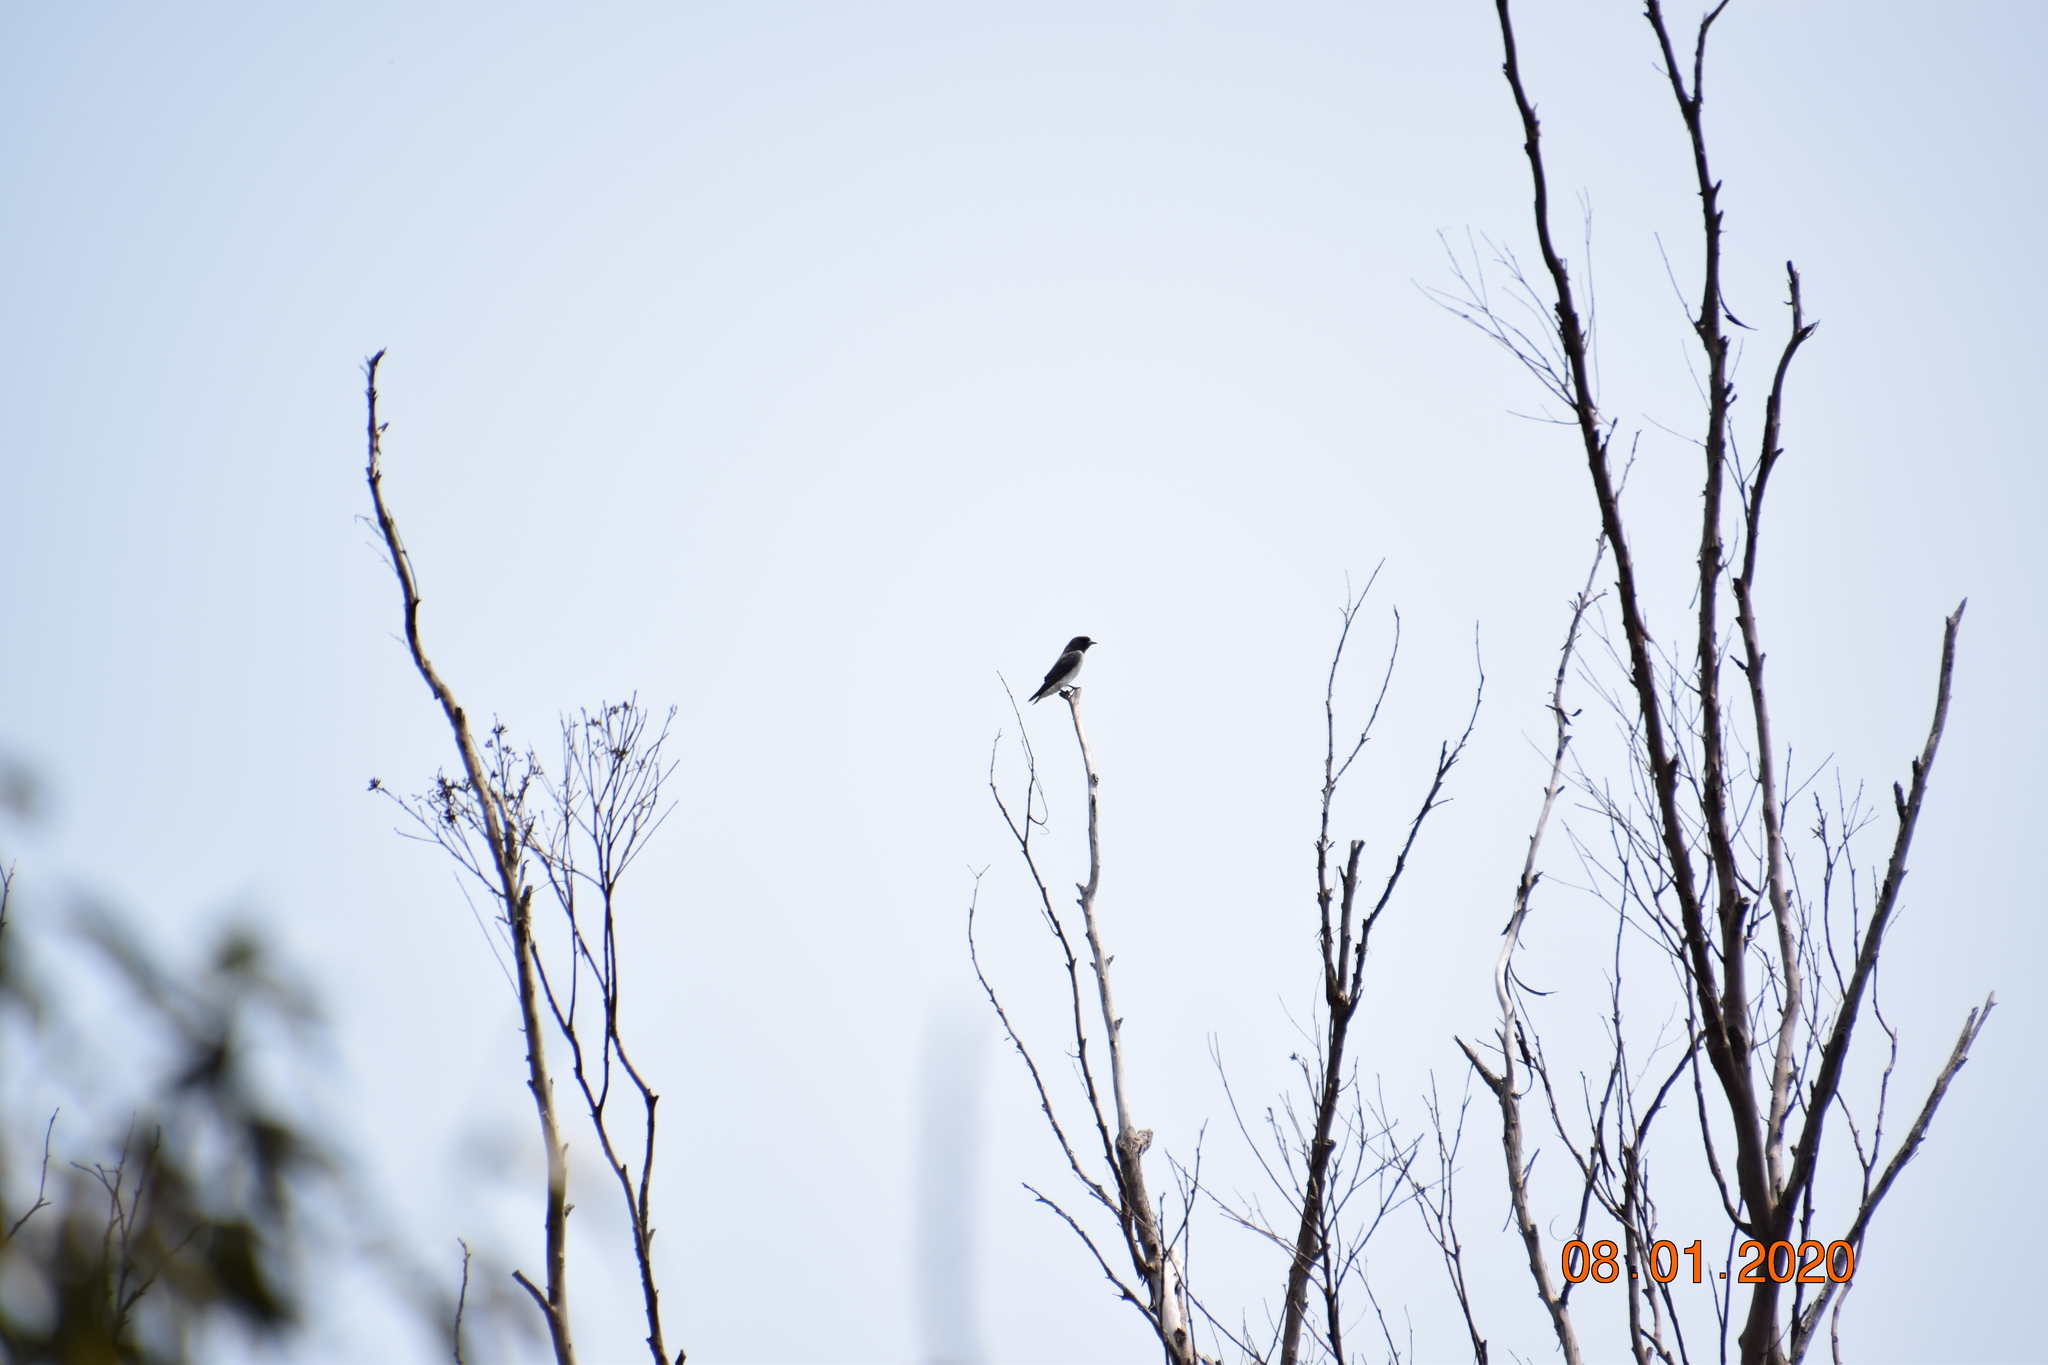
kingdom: Animalia
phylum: Chordata
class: Aves
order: Passeriformes
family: Artamidae
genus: Artamus
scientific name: Artamus leucoryn
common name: White-breasted woodswallow
